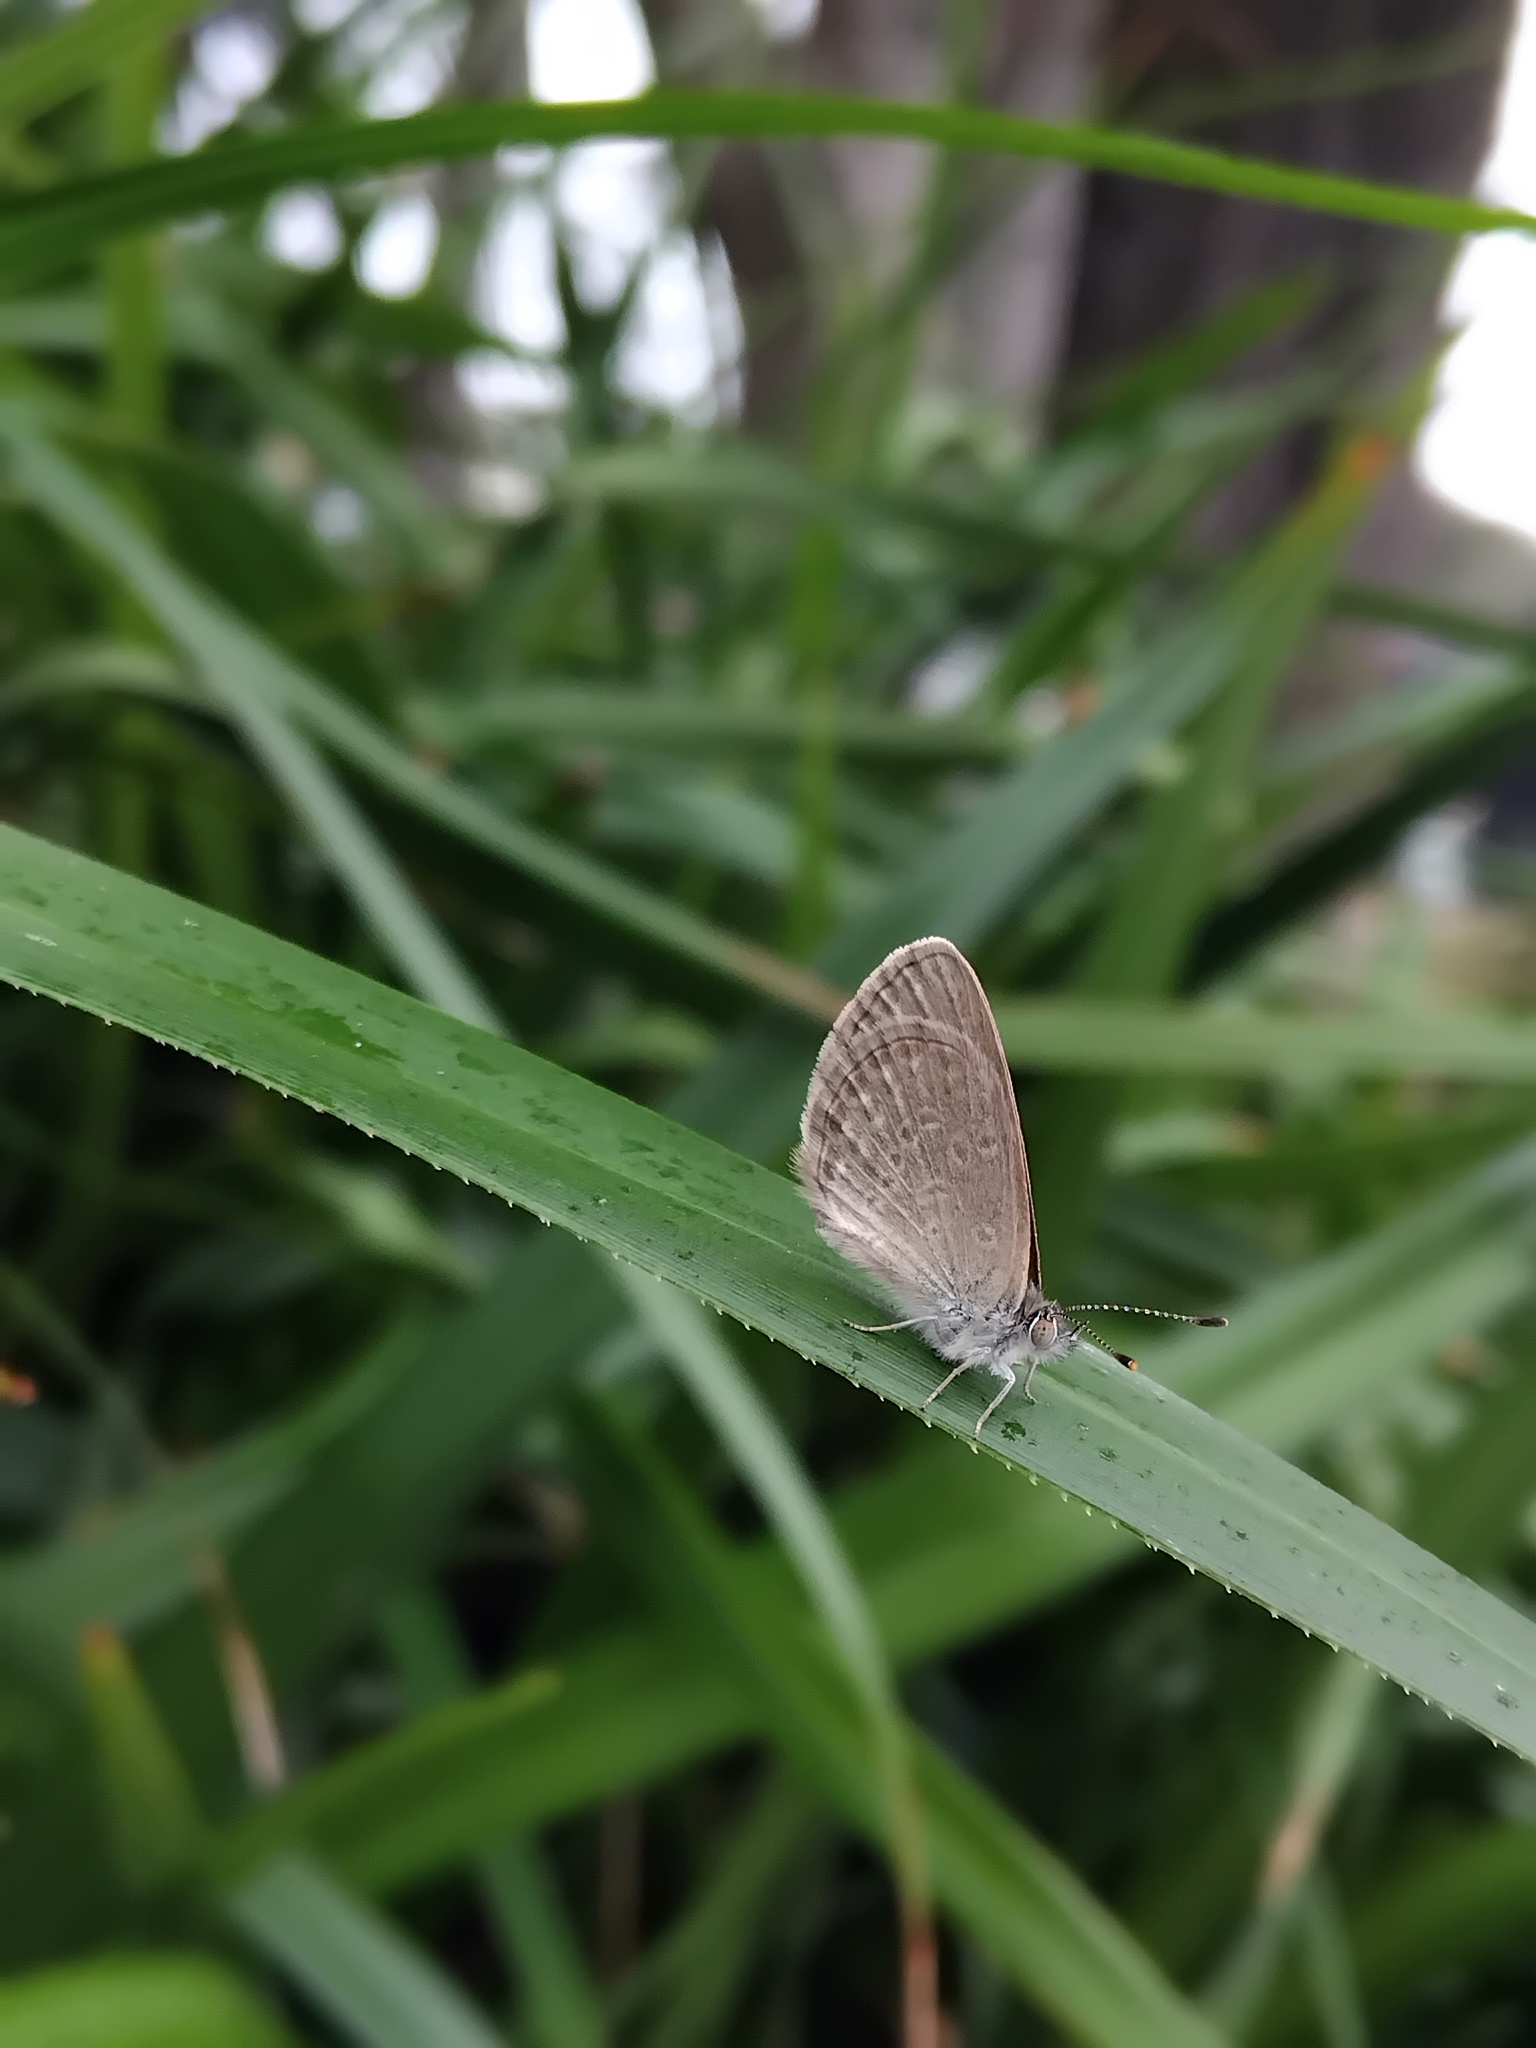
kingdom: Animalia
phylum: Arthropoda
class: Insecta
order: Lepidoptera
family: Lycaenidae
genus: Zizina
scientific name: Zizina otis
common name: Lesser grass blue
